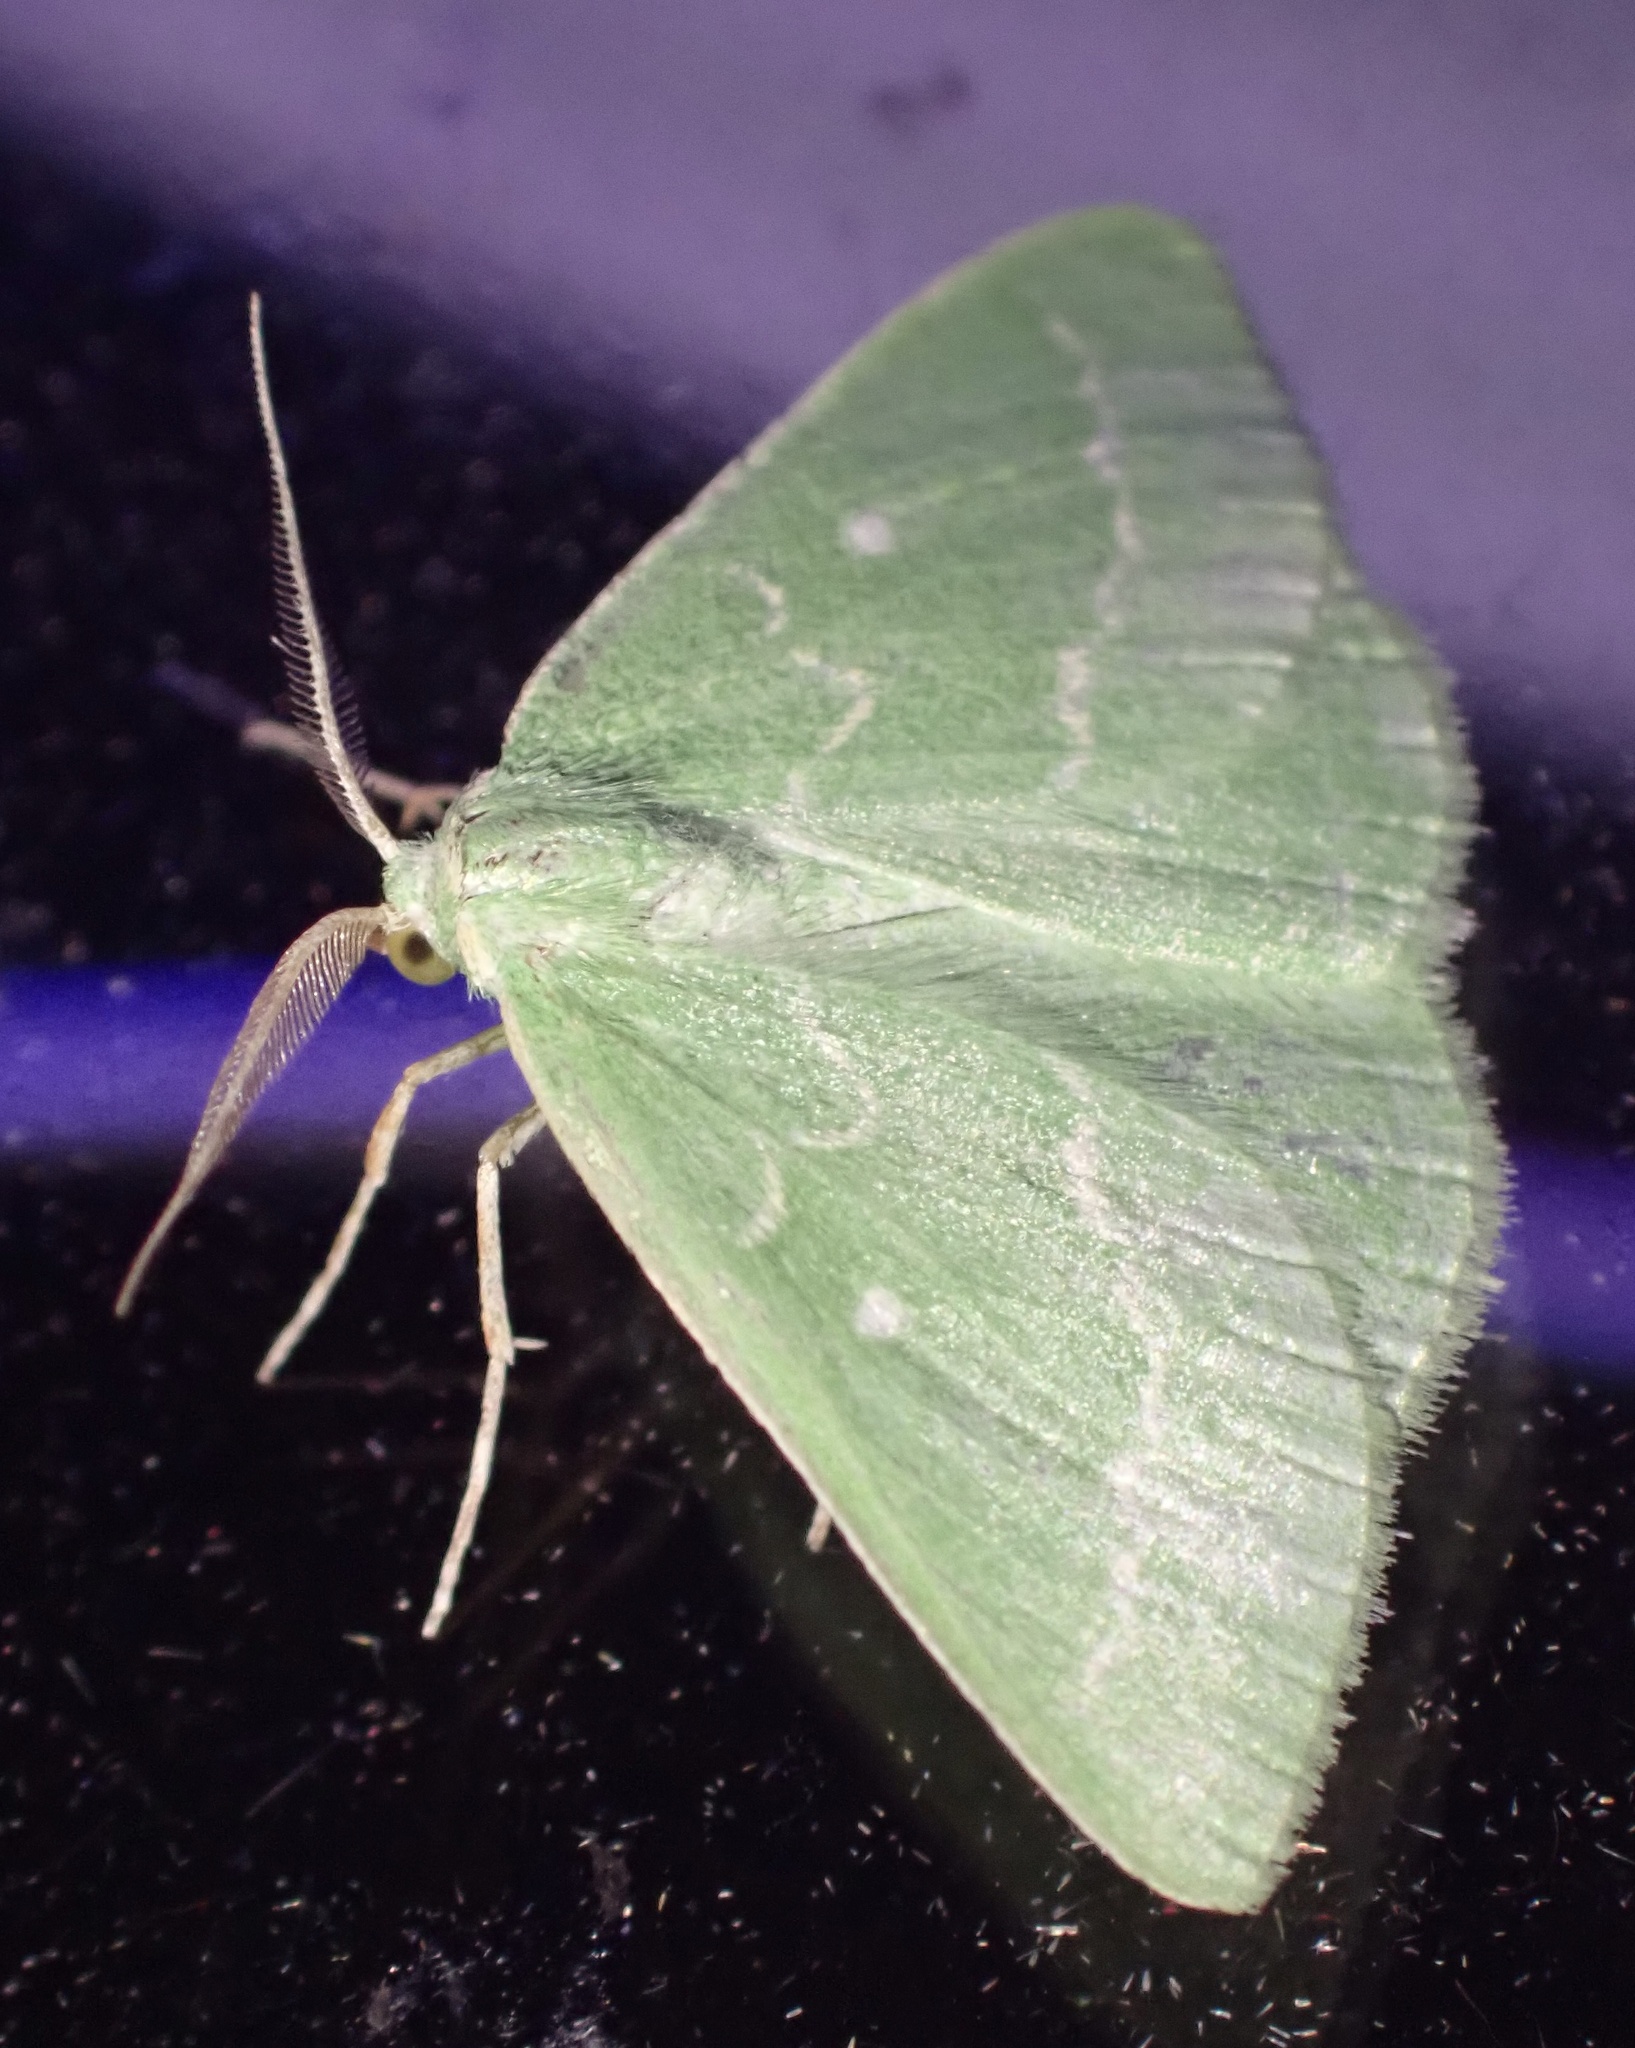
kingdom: Animalia
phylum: Arthropoda
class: Insecta
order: Lepidoptera
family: Geometridae
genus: Thetidia
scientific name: Thetidia smaragdaria
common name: Essex emerald
